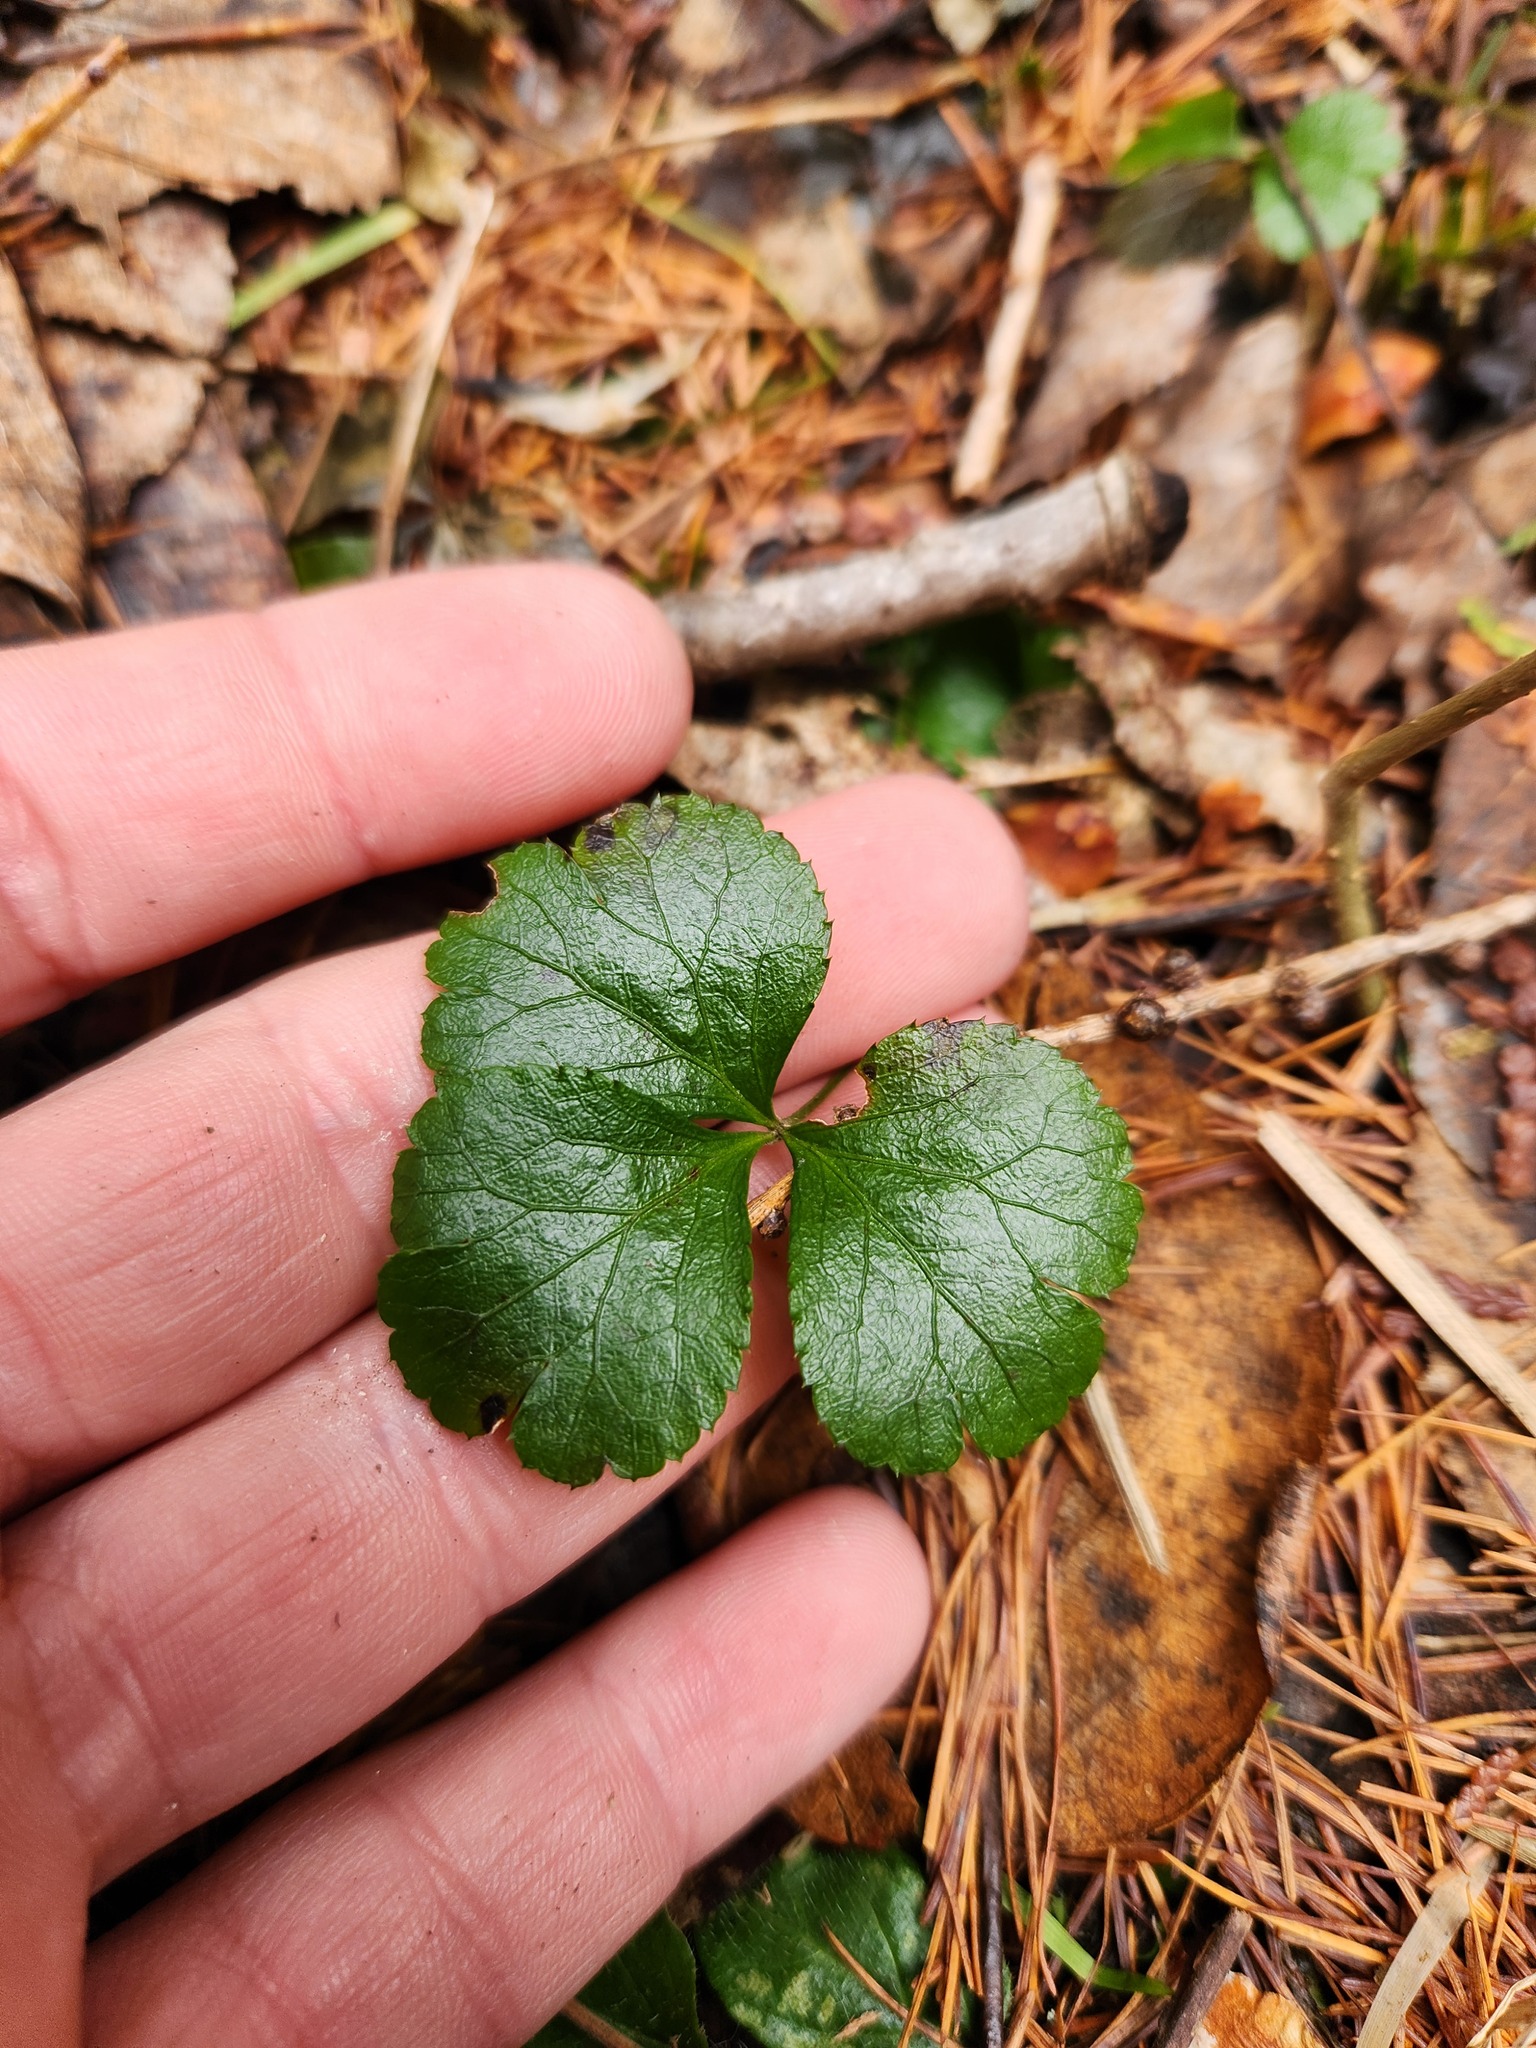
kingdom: Plantae
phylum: Tracheophyta
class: Magnoliopsida
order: Ranunculales
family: Ranunculaceae
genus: Coptis
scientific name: Coptis trifolia
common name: Canker-root
